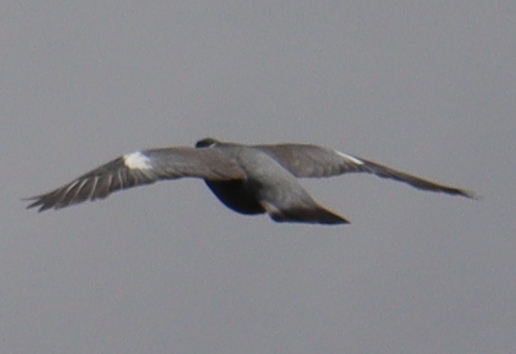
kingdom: Animalia
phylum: Chordata
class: Aves
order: Columbiformes
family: Columbidae
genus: Columba
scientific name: Columba palumbus
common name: Common wood pigeon
